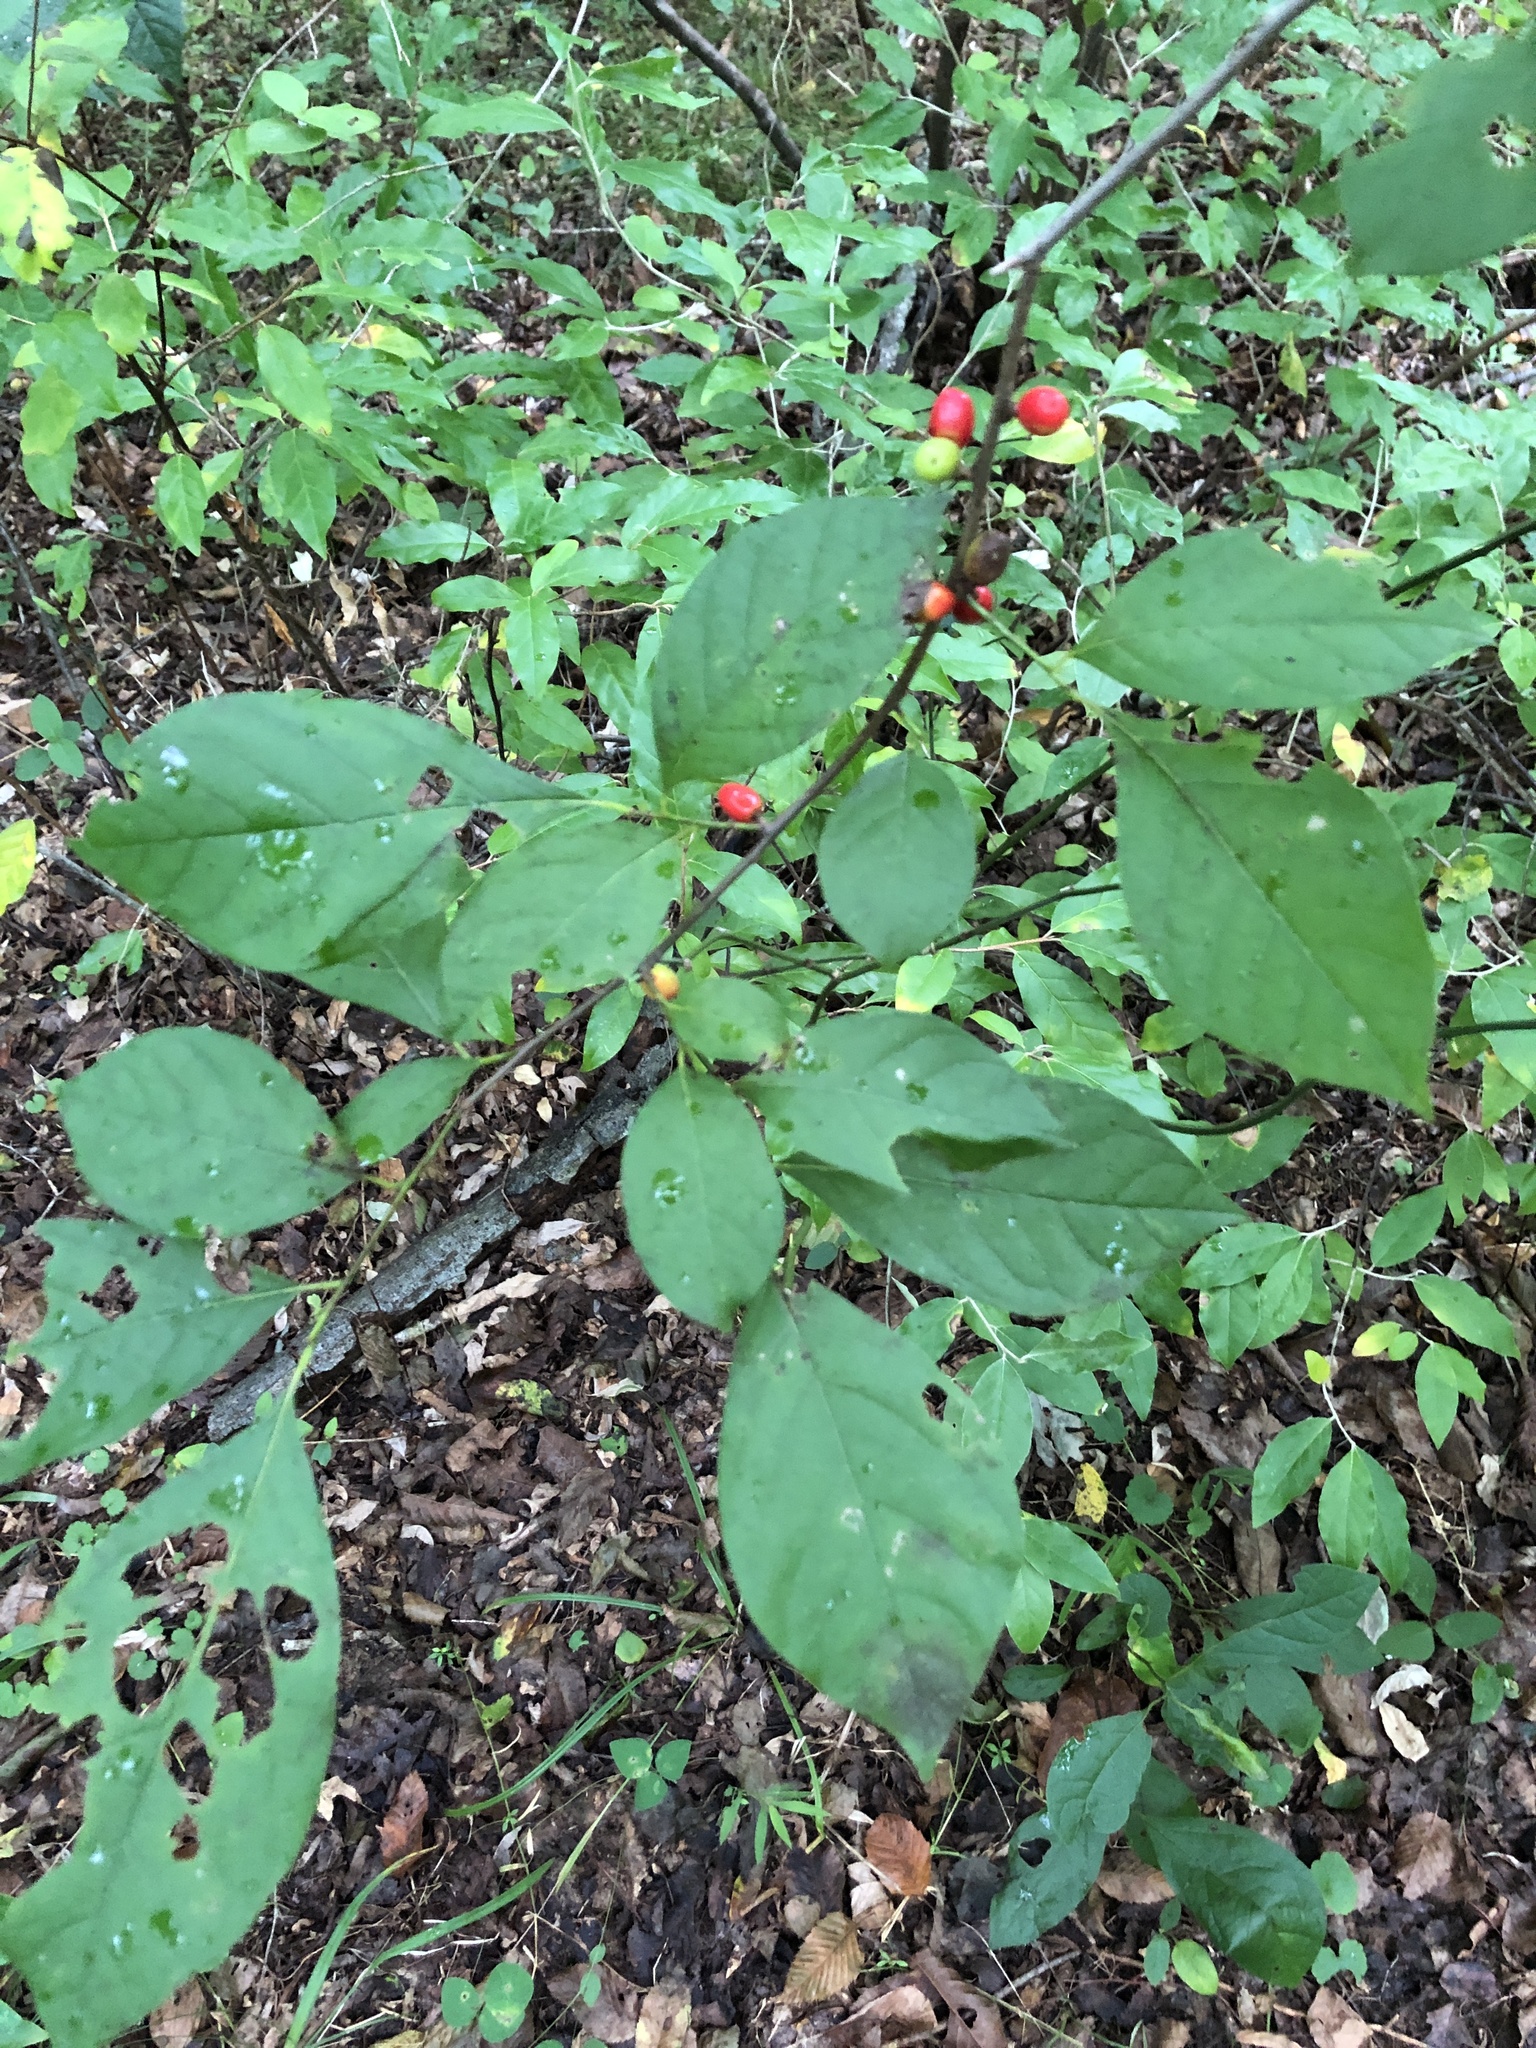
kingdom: Plantae
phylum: Tracheophyta
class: Magnoliopsida
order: Laurales
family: Lauraceae
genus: Lindera
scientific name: Lindera benzoin
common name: Spicebush
